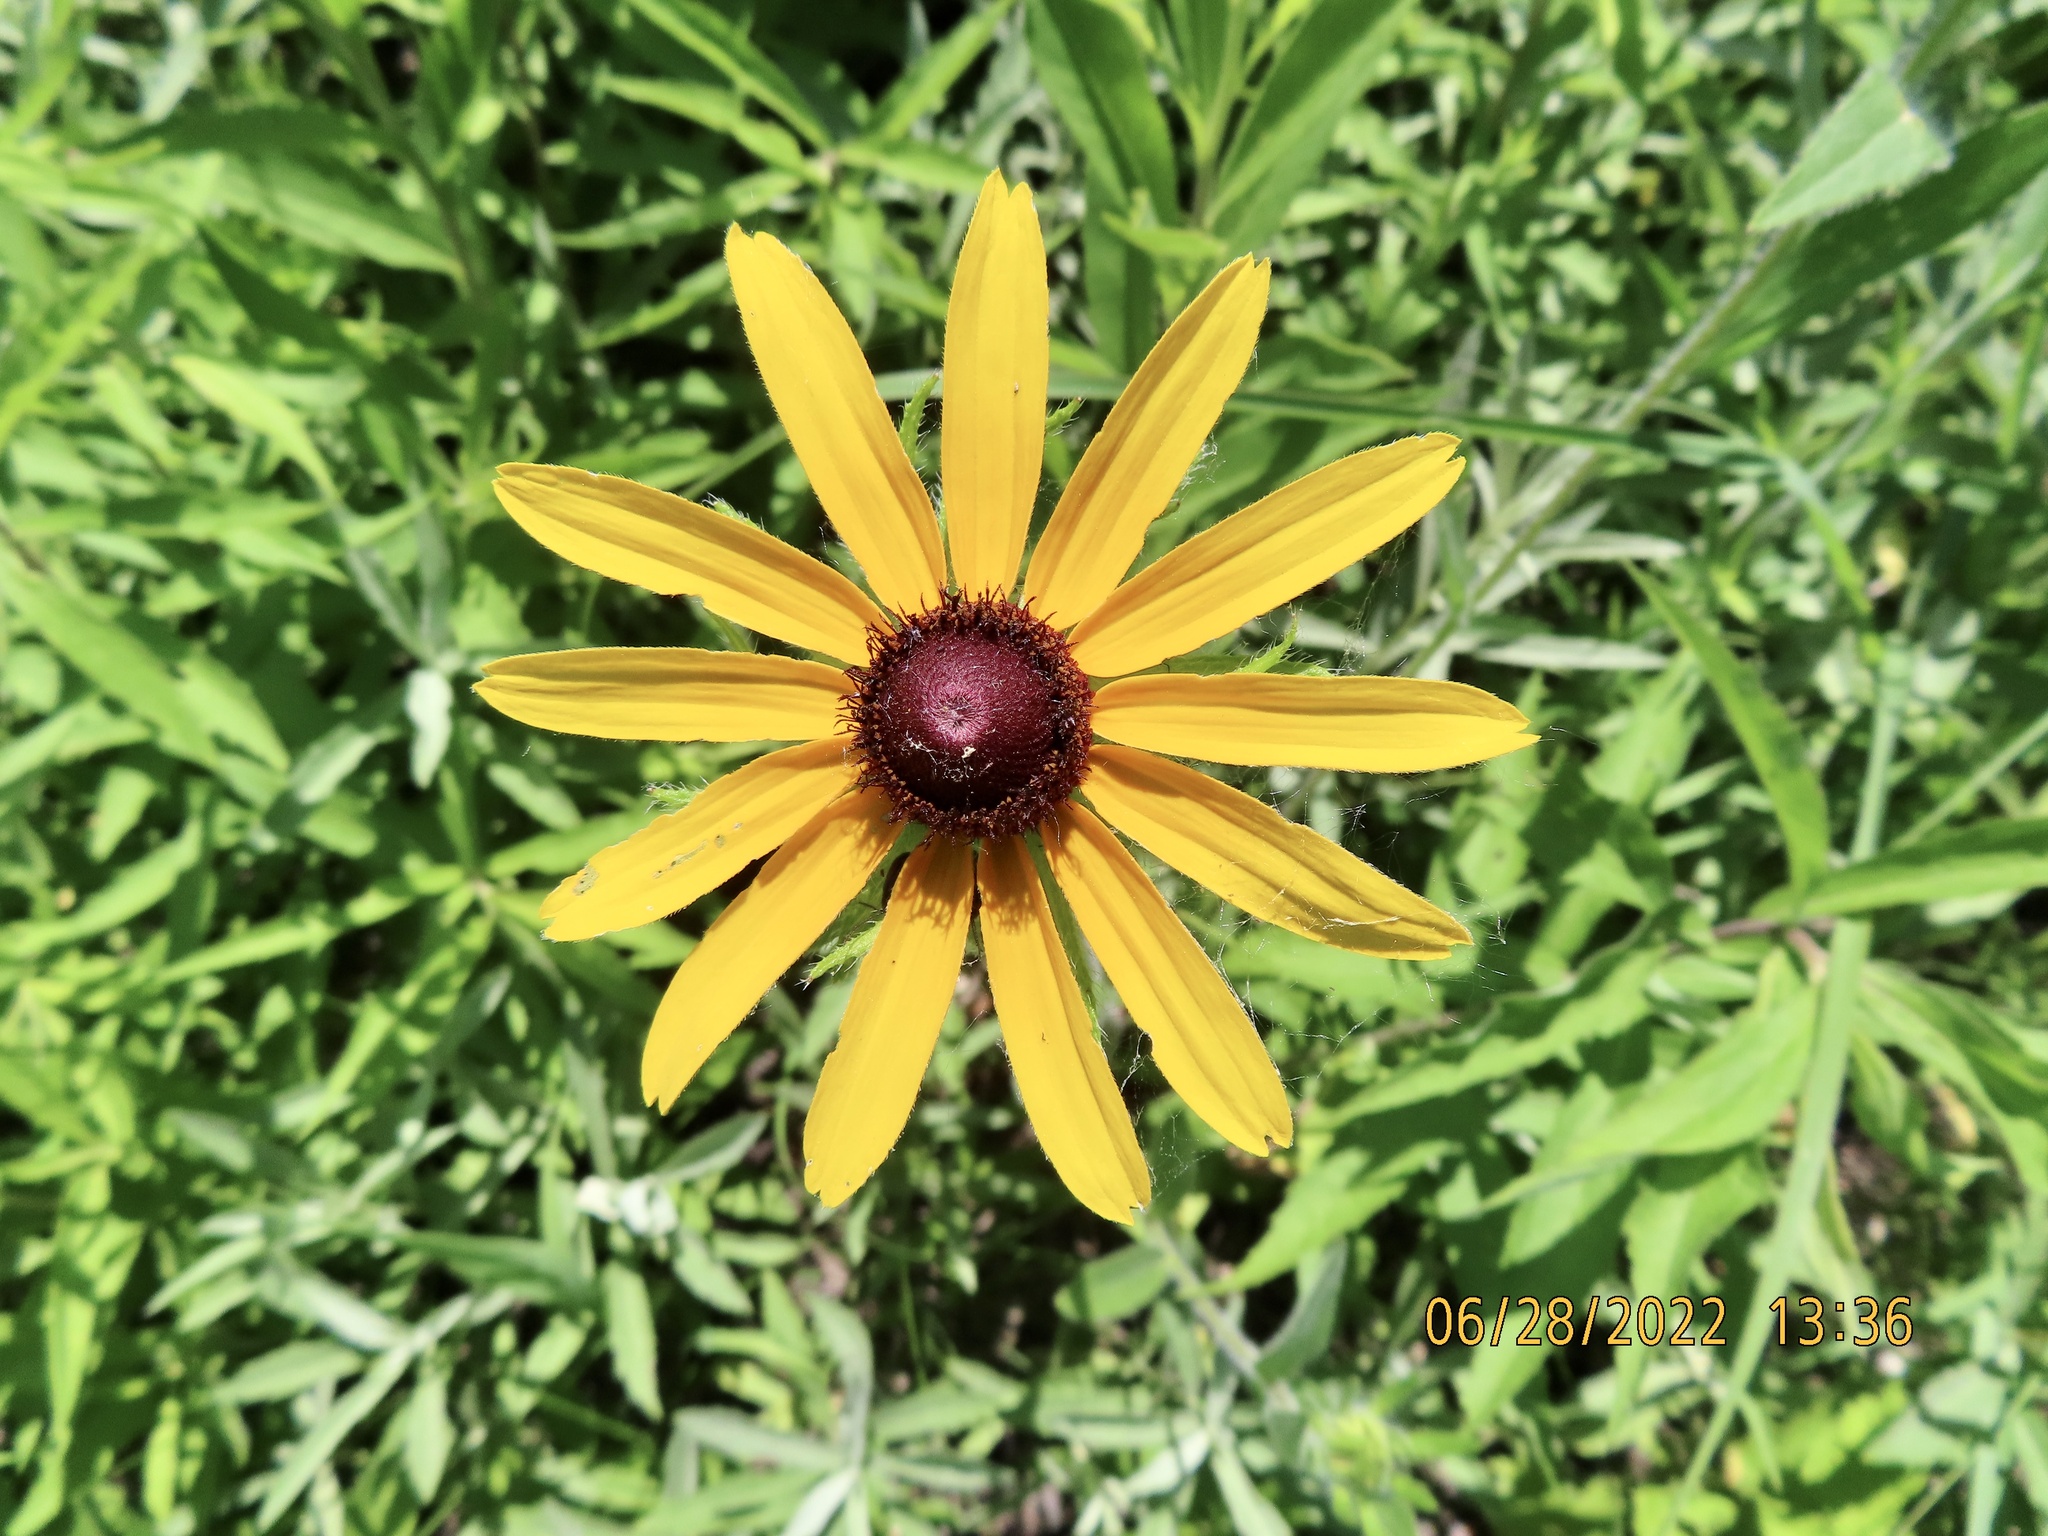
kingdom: Plantae
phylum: Tracheophyta
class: Magnoliopsida
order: Asterales
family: Asteraceae
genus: Rudbeckia
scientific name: Rudbeckia hirta
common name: Black-eyed-susan
